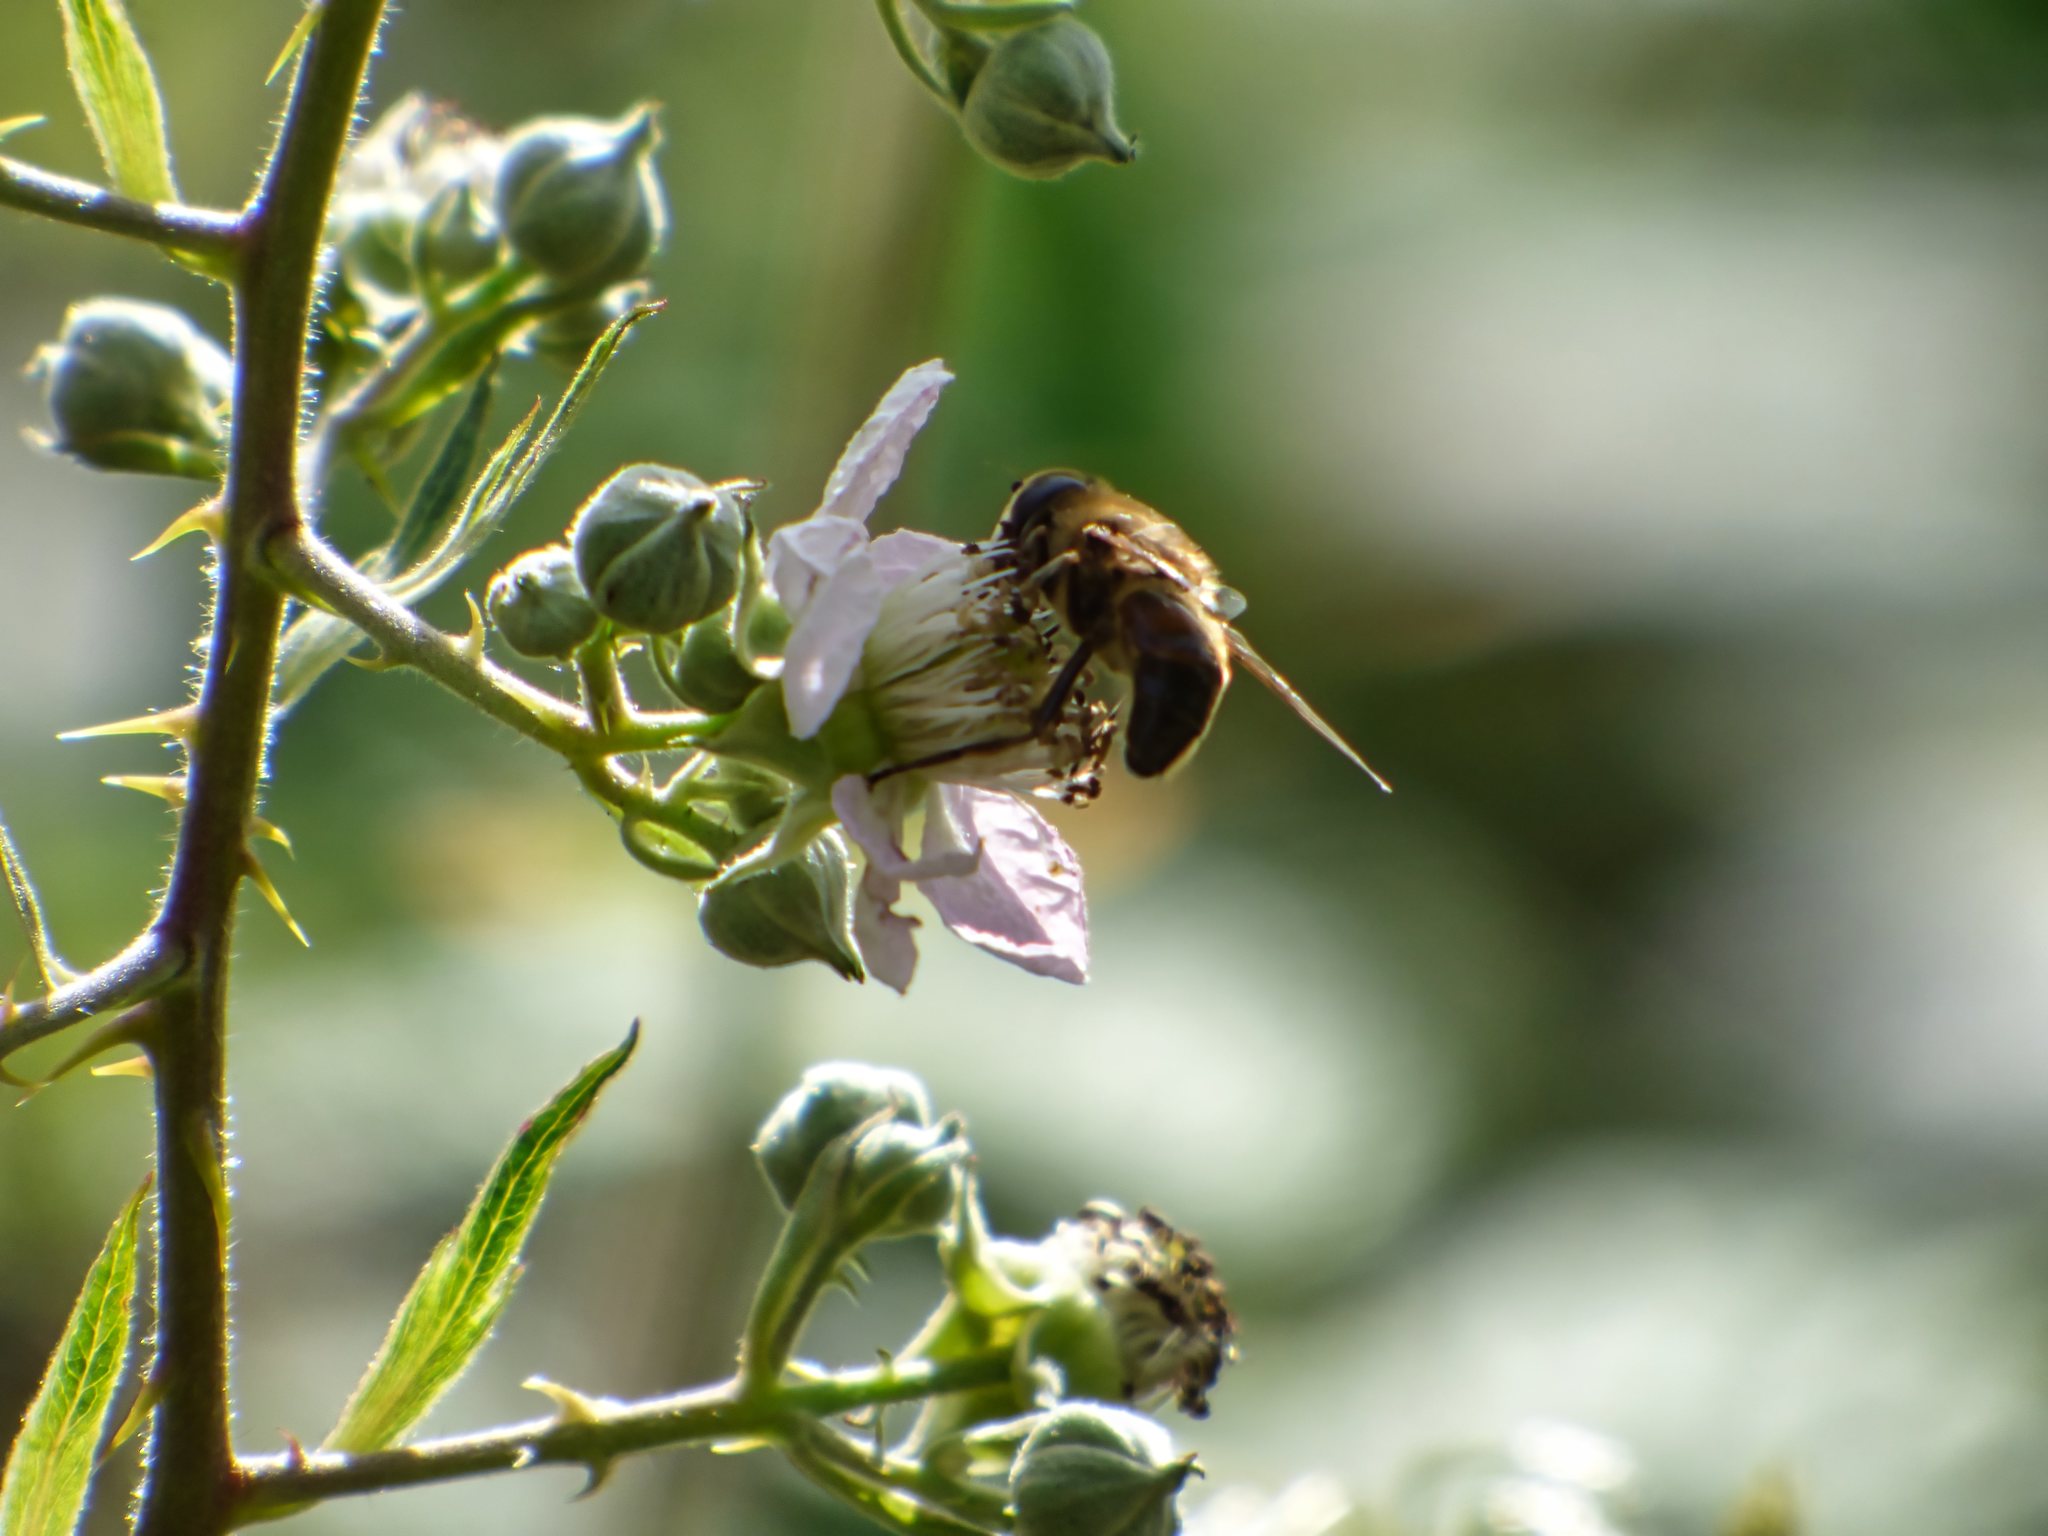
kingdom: Animalia
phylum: Arthropoda
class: Insecta
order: Diptera
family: Syrphidae
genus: Eristalis
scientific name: Eristalis tenax
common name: Drone fly
